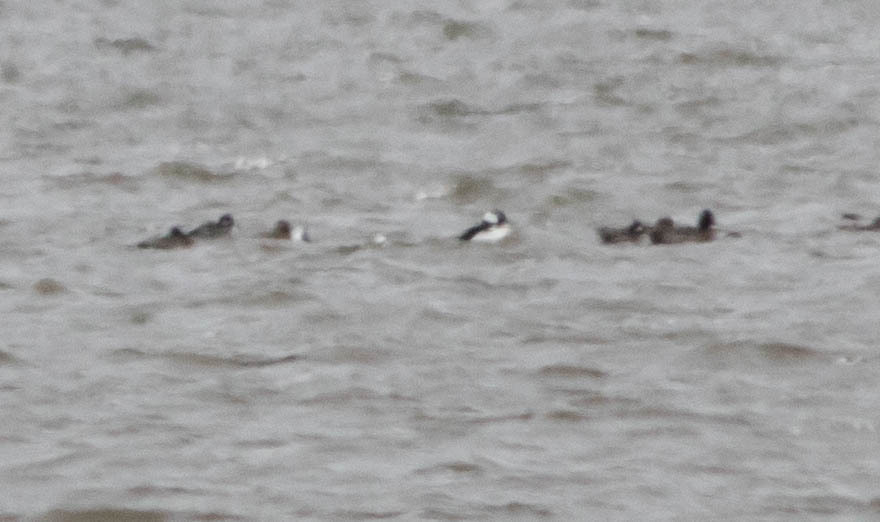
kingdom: Animalia
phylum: Chordata
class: Aves
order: Anseriformes
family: Anatidae
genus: Bucephala
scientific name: Bucephala albeola
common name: Bufflehead
